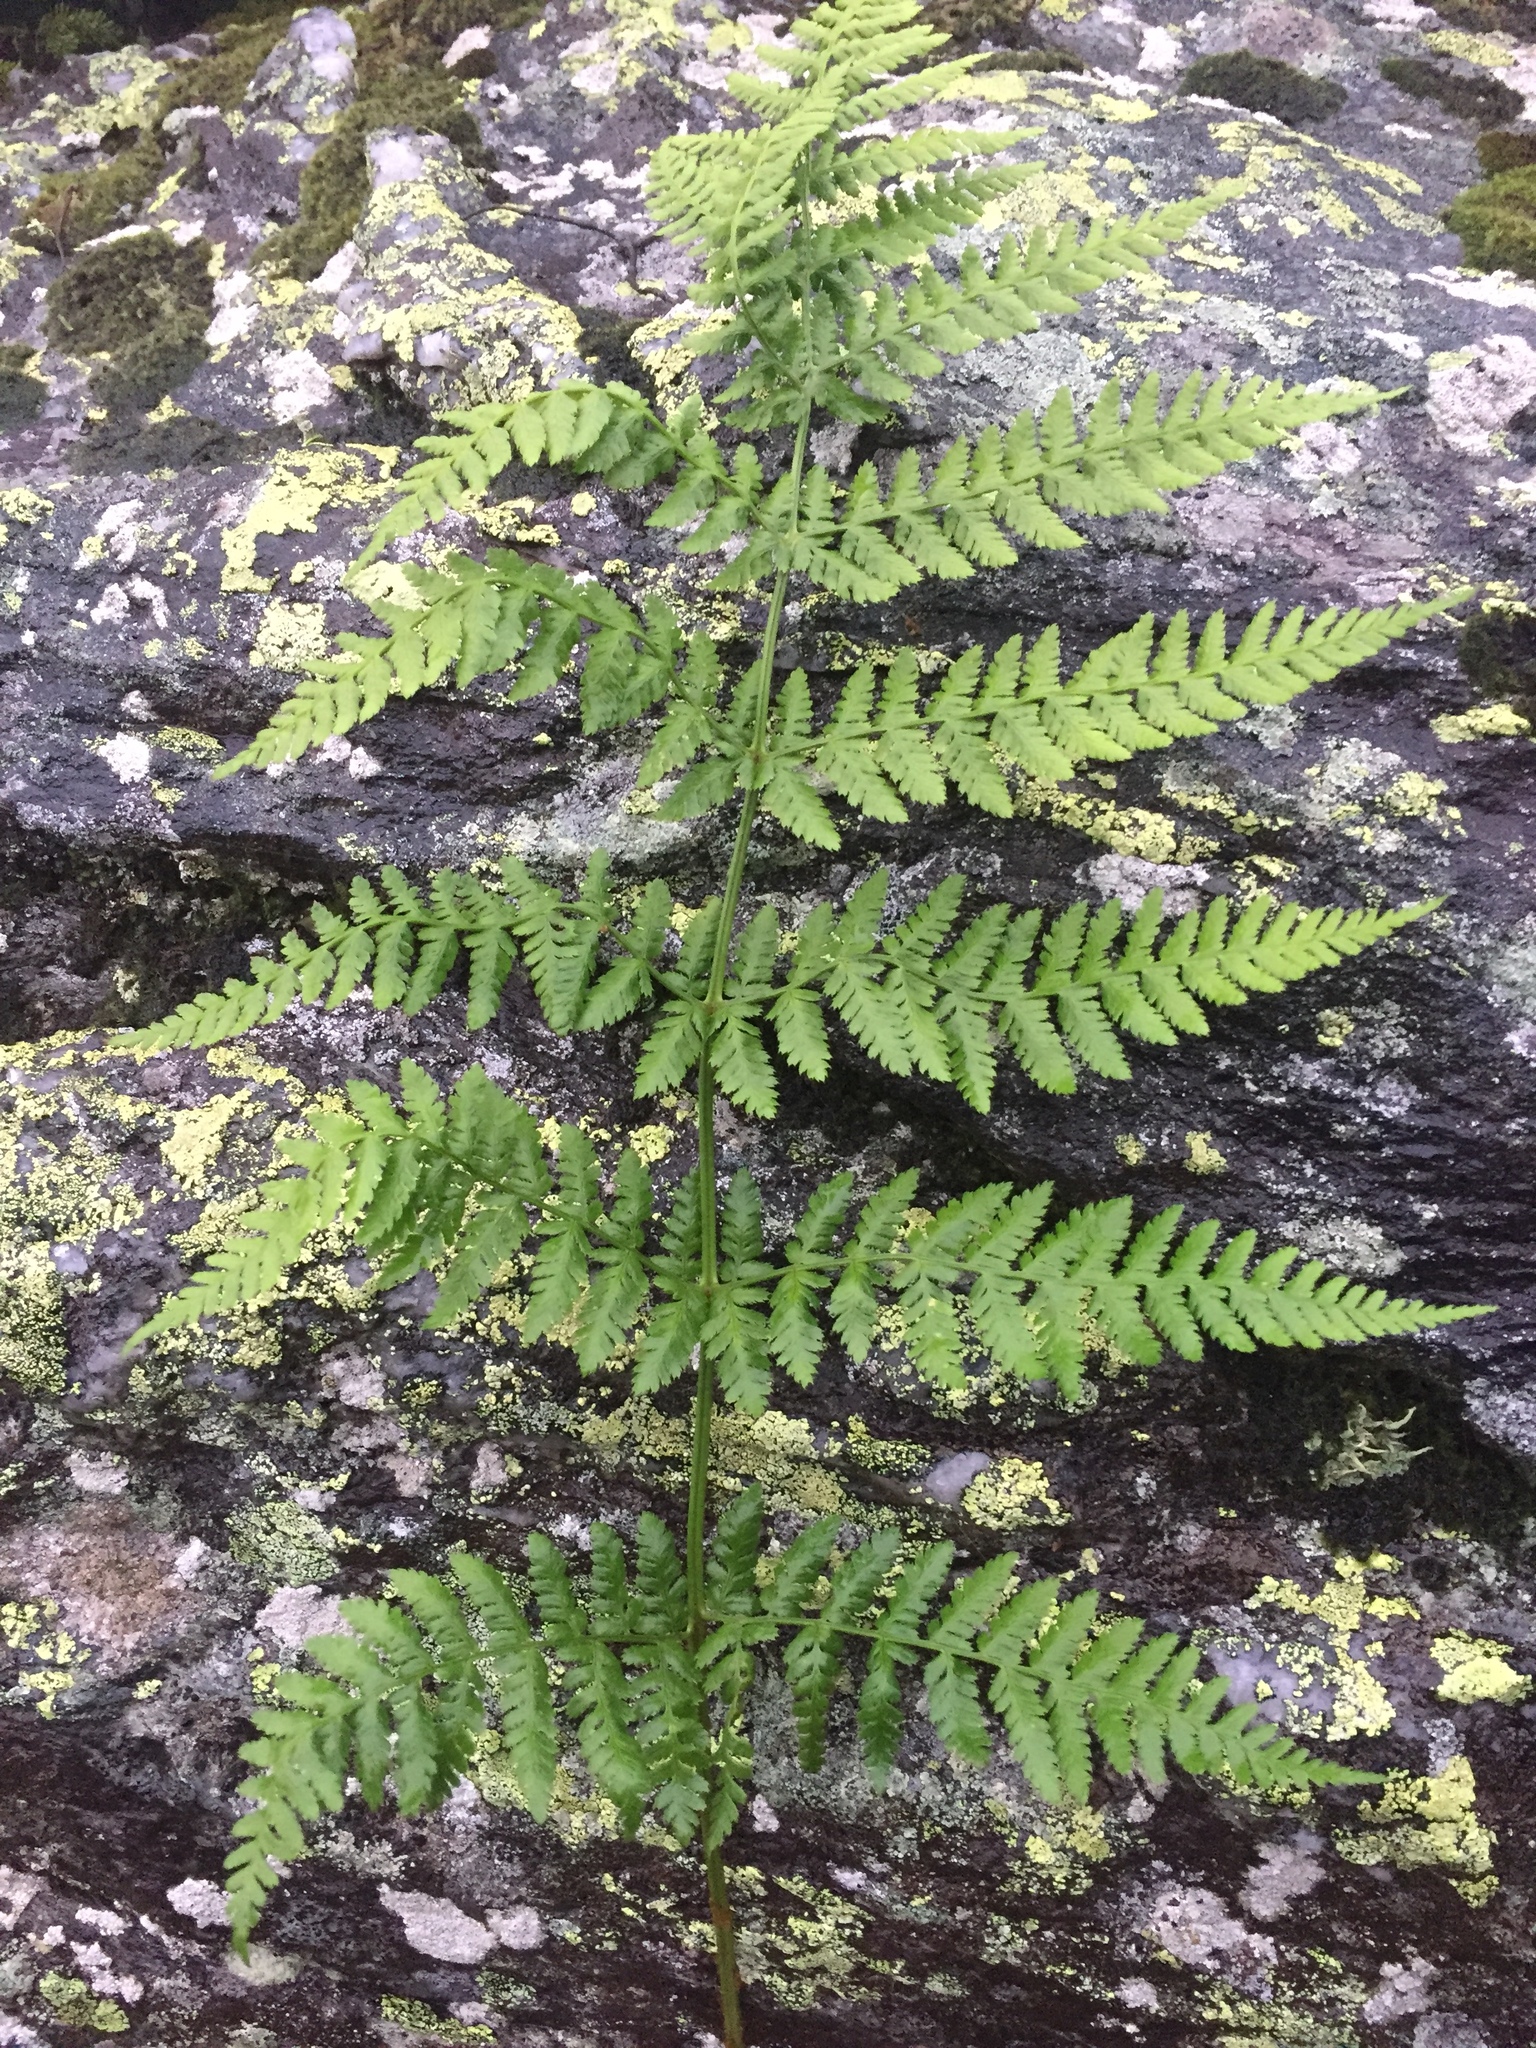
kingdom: Plantae
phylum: Tracheophyta
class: Polypodiopsida
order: Polypodiales
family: Dryopteridaceae
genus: Dryopteris
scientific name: Dryopteris campyloptera
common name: Mountain wood fern
